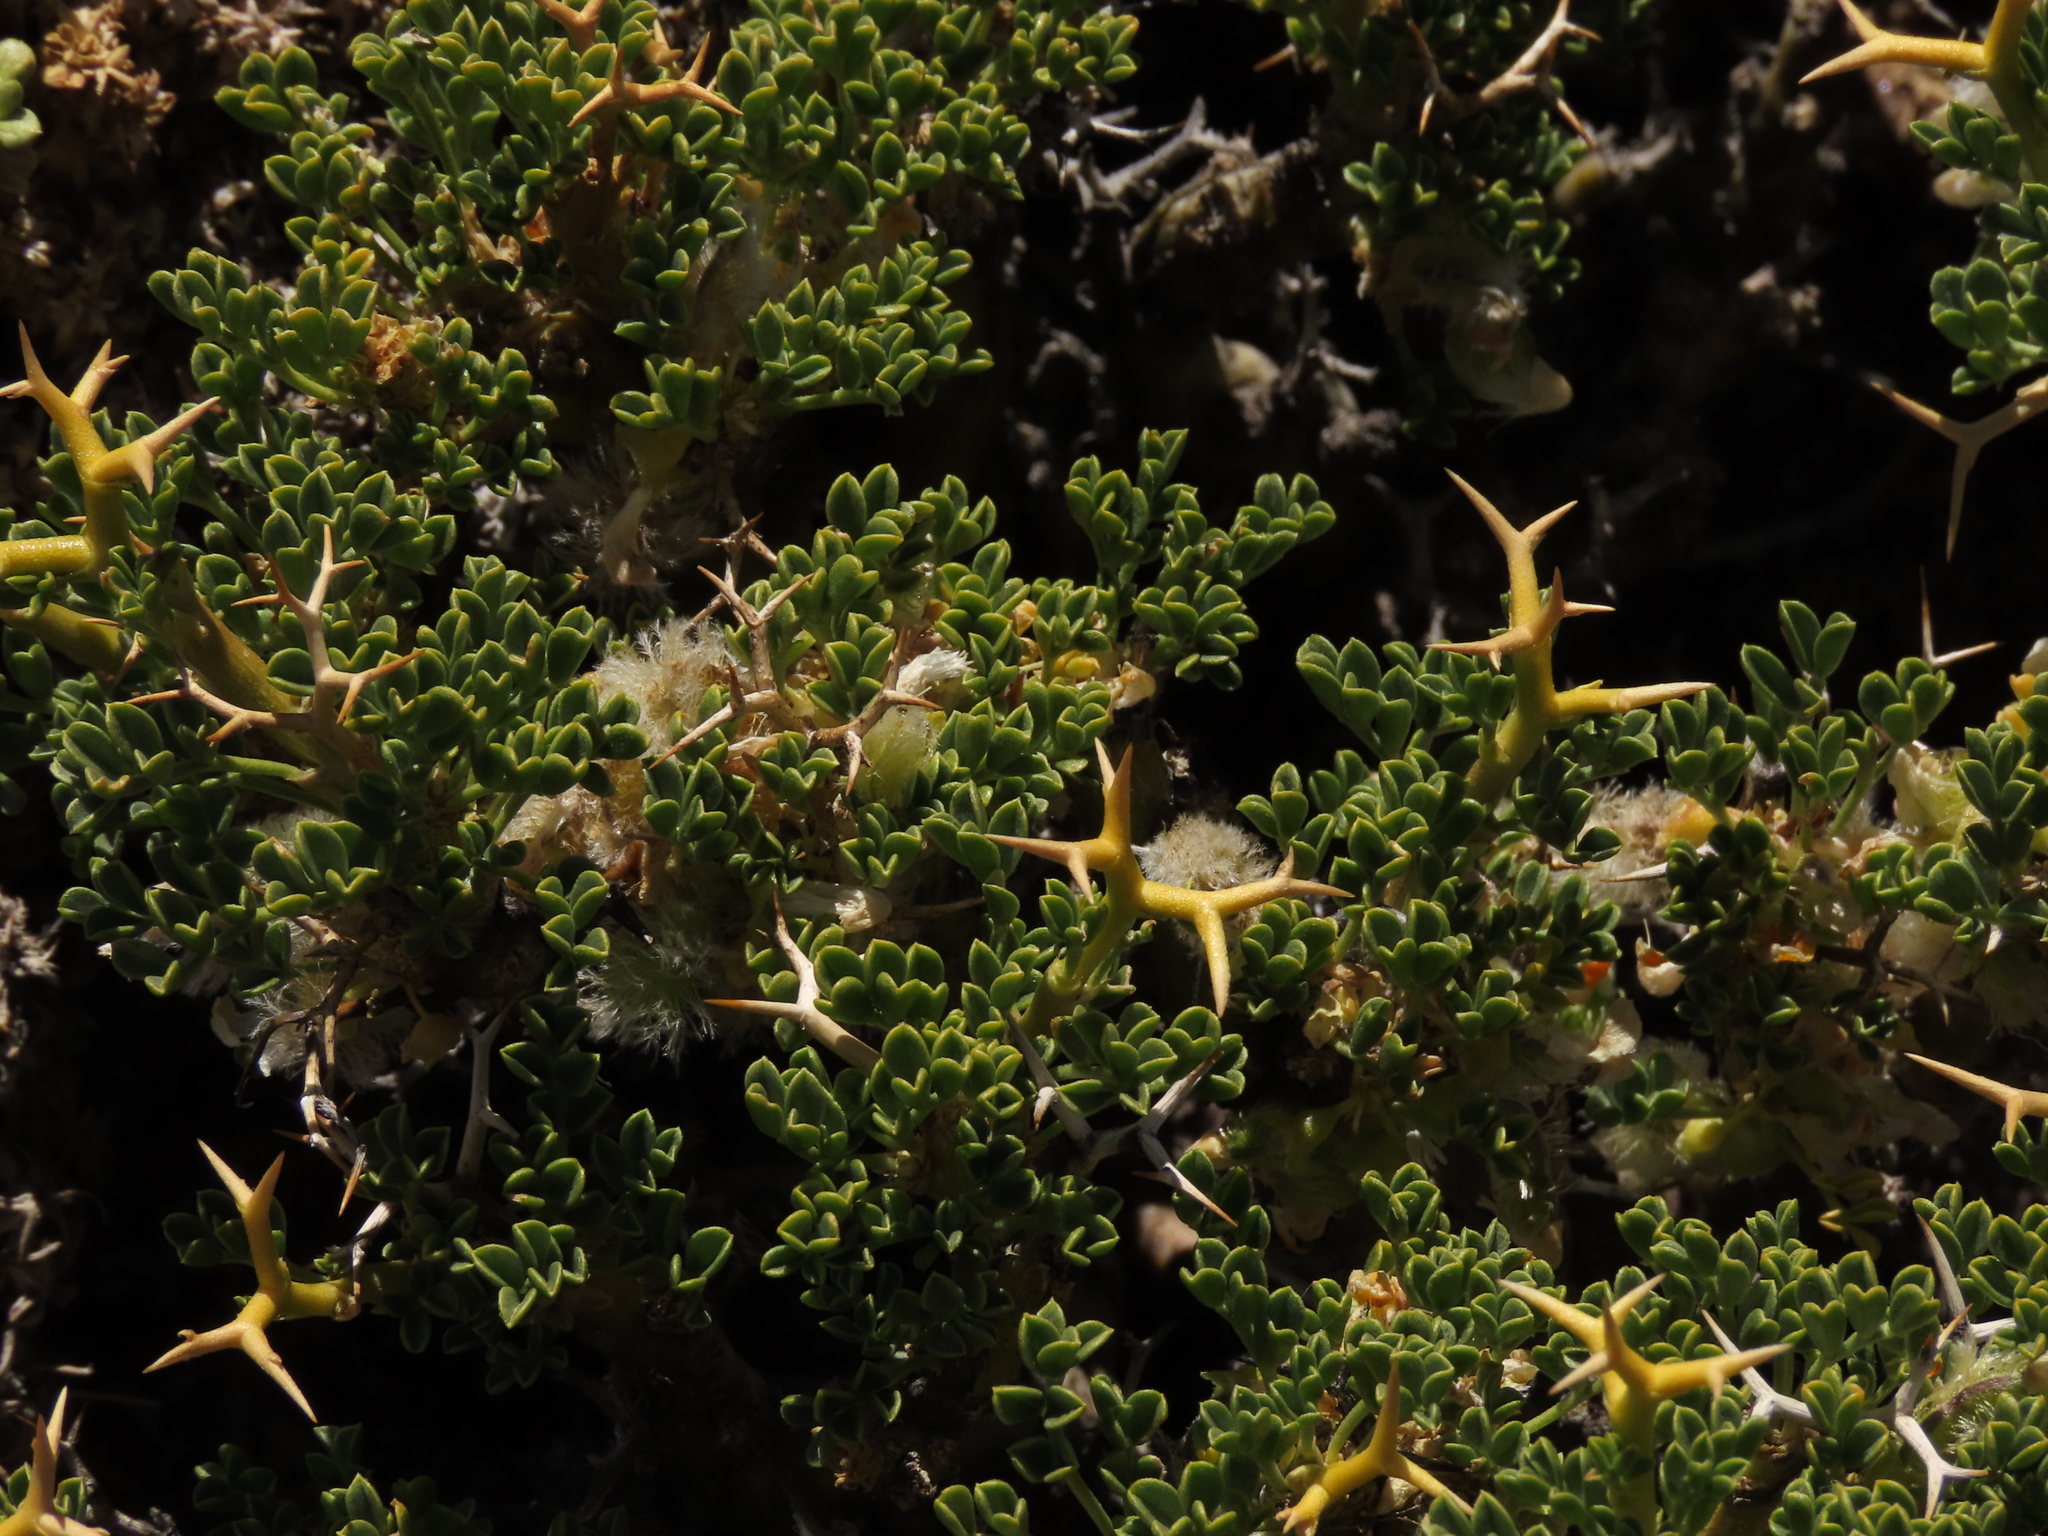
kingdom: Plantae
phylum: Tracheophyta
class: Magnoliopsida
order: Fabales
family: Fabaceae
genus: Adesmia
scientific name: Adesmia hemisphaerica
